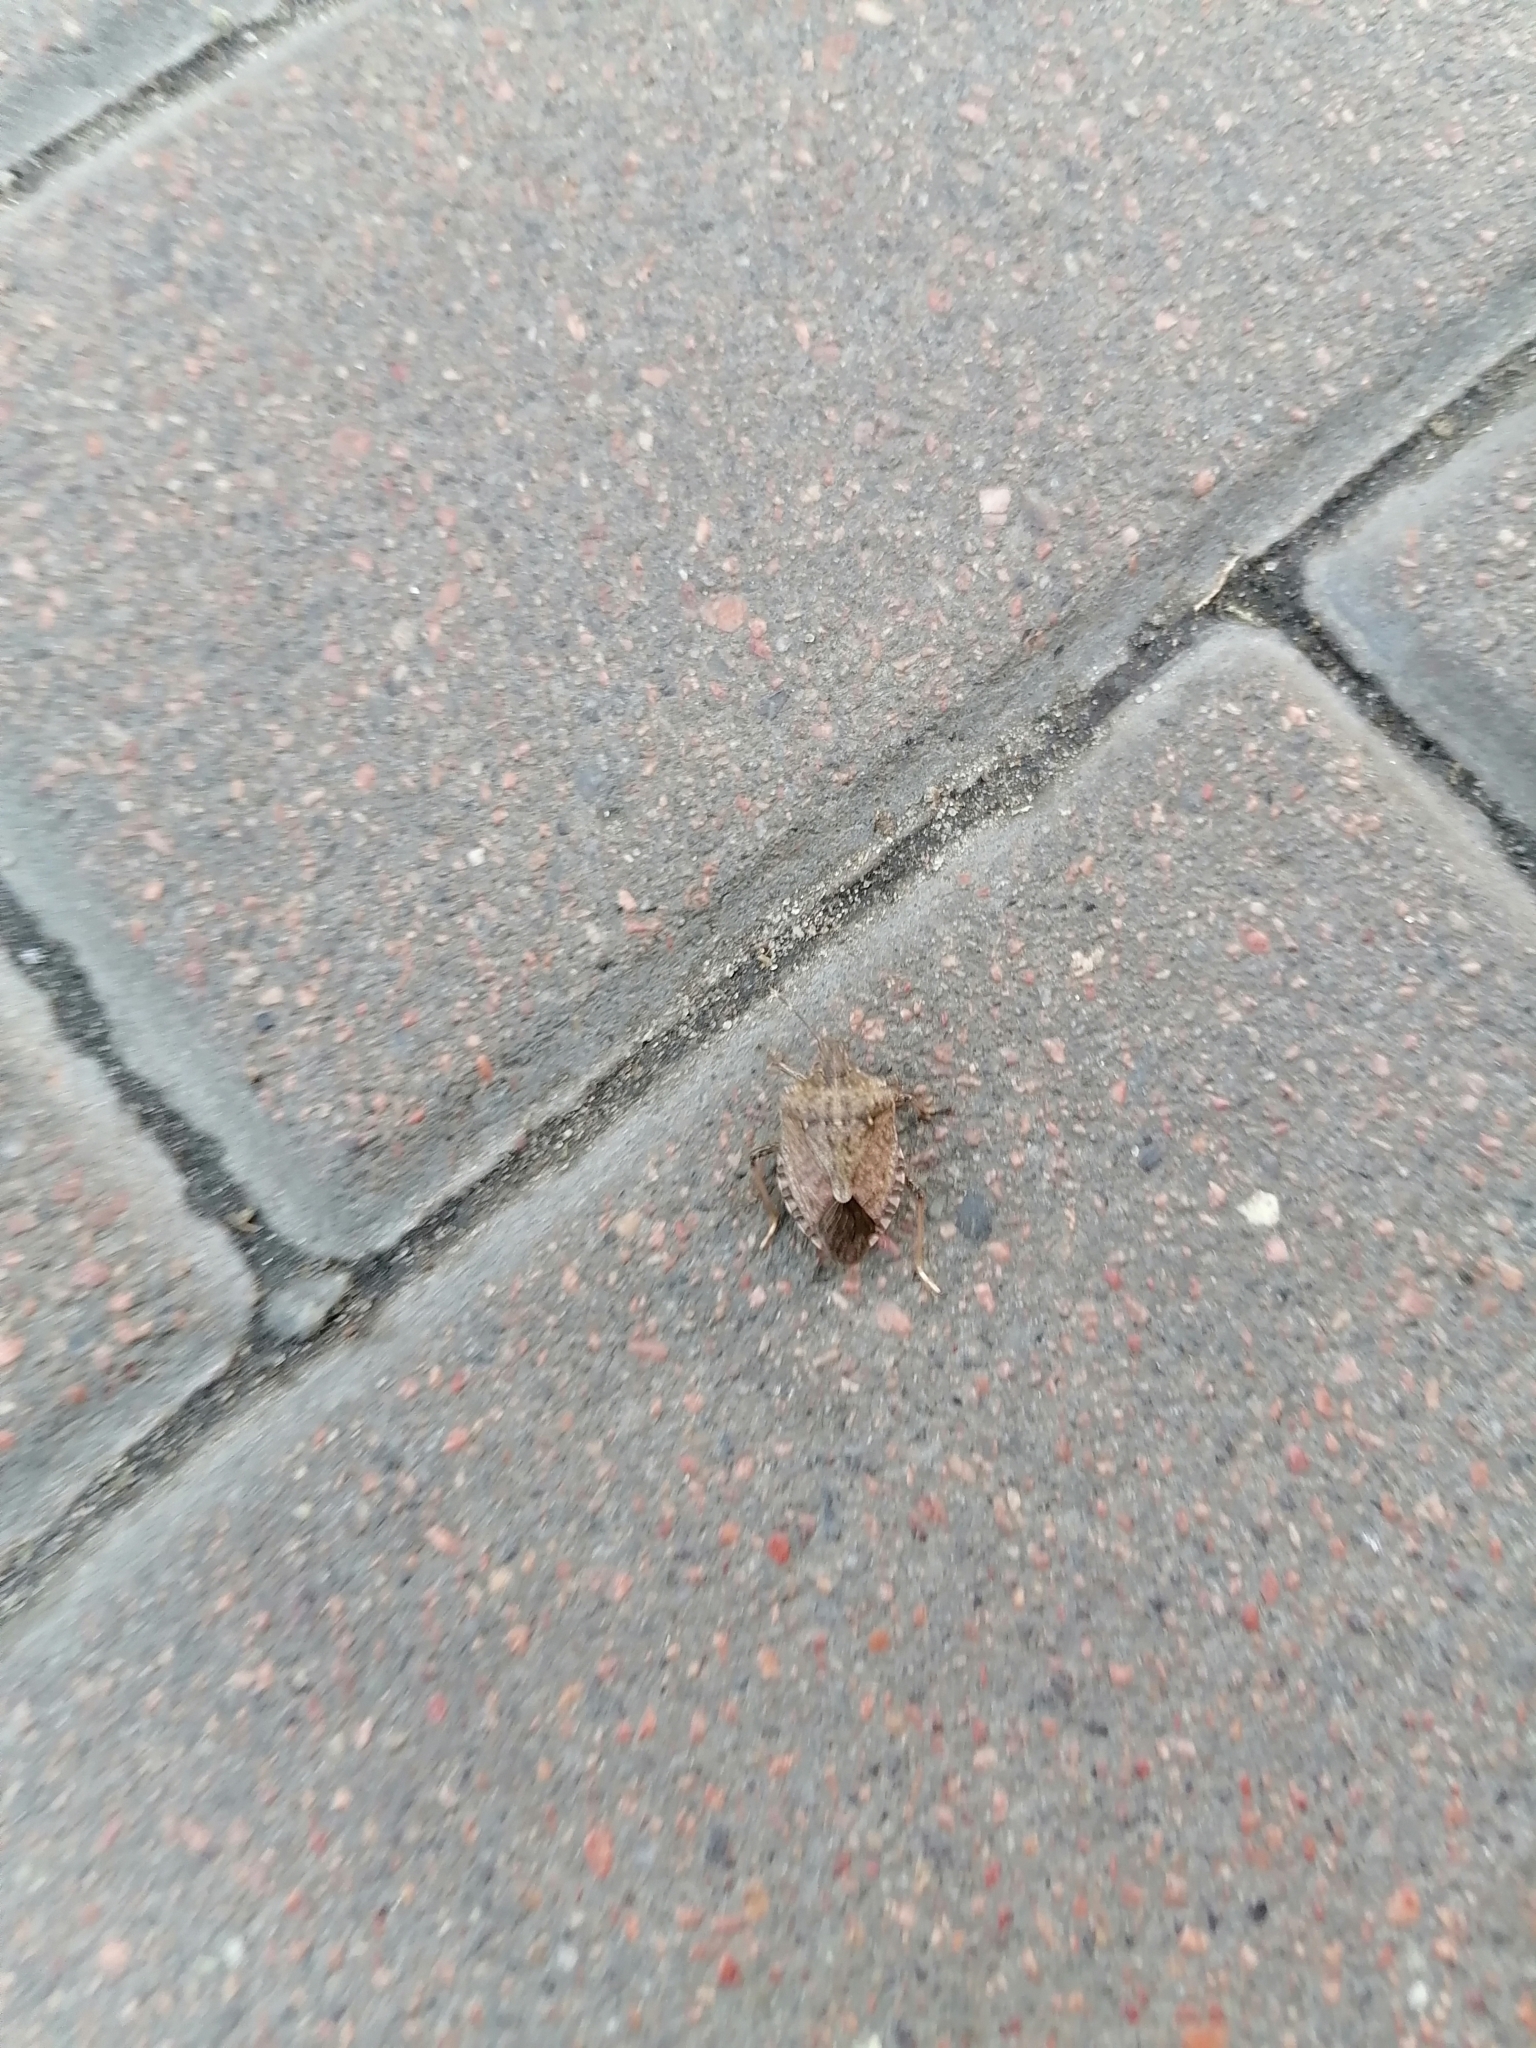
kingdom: Animalia
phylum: Arthropoda
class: Insecta
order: Hemiptera
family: Pentatomidae
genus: Halyomorpha
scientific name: Halyomorpha halys
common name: Brown marmorated stink bug
